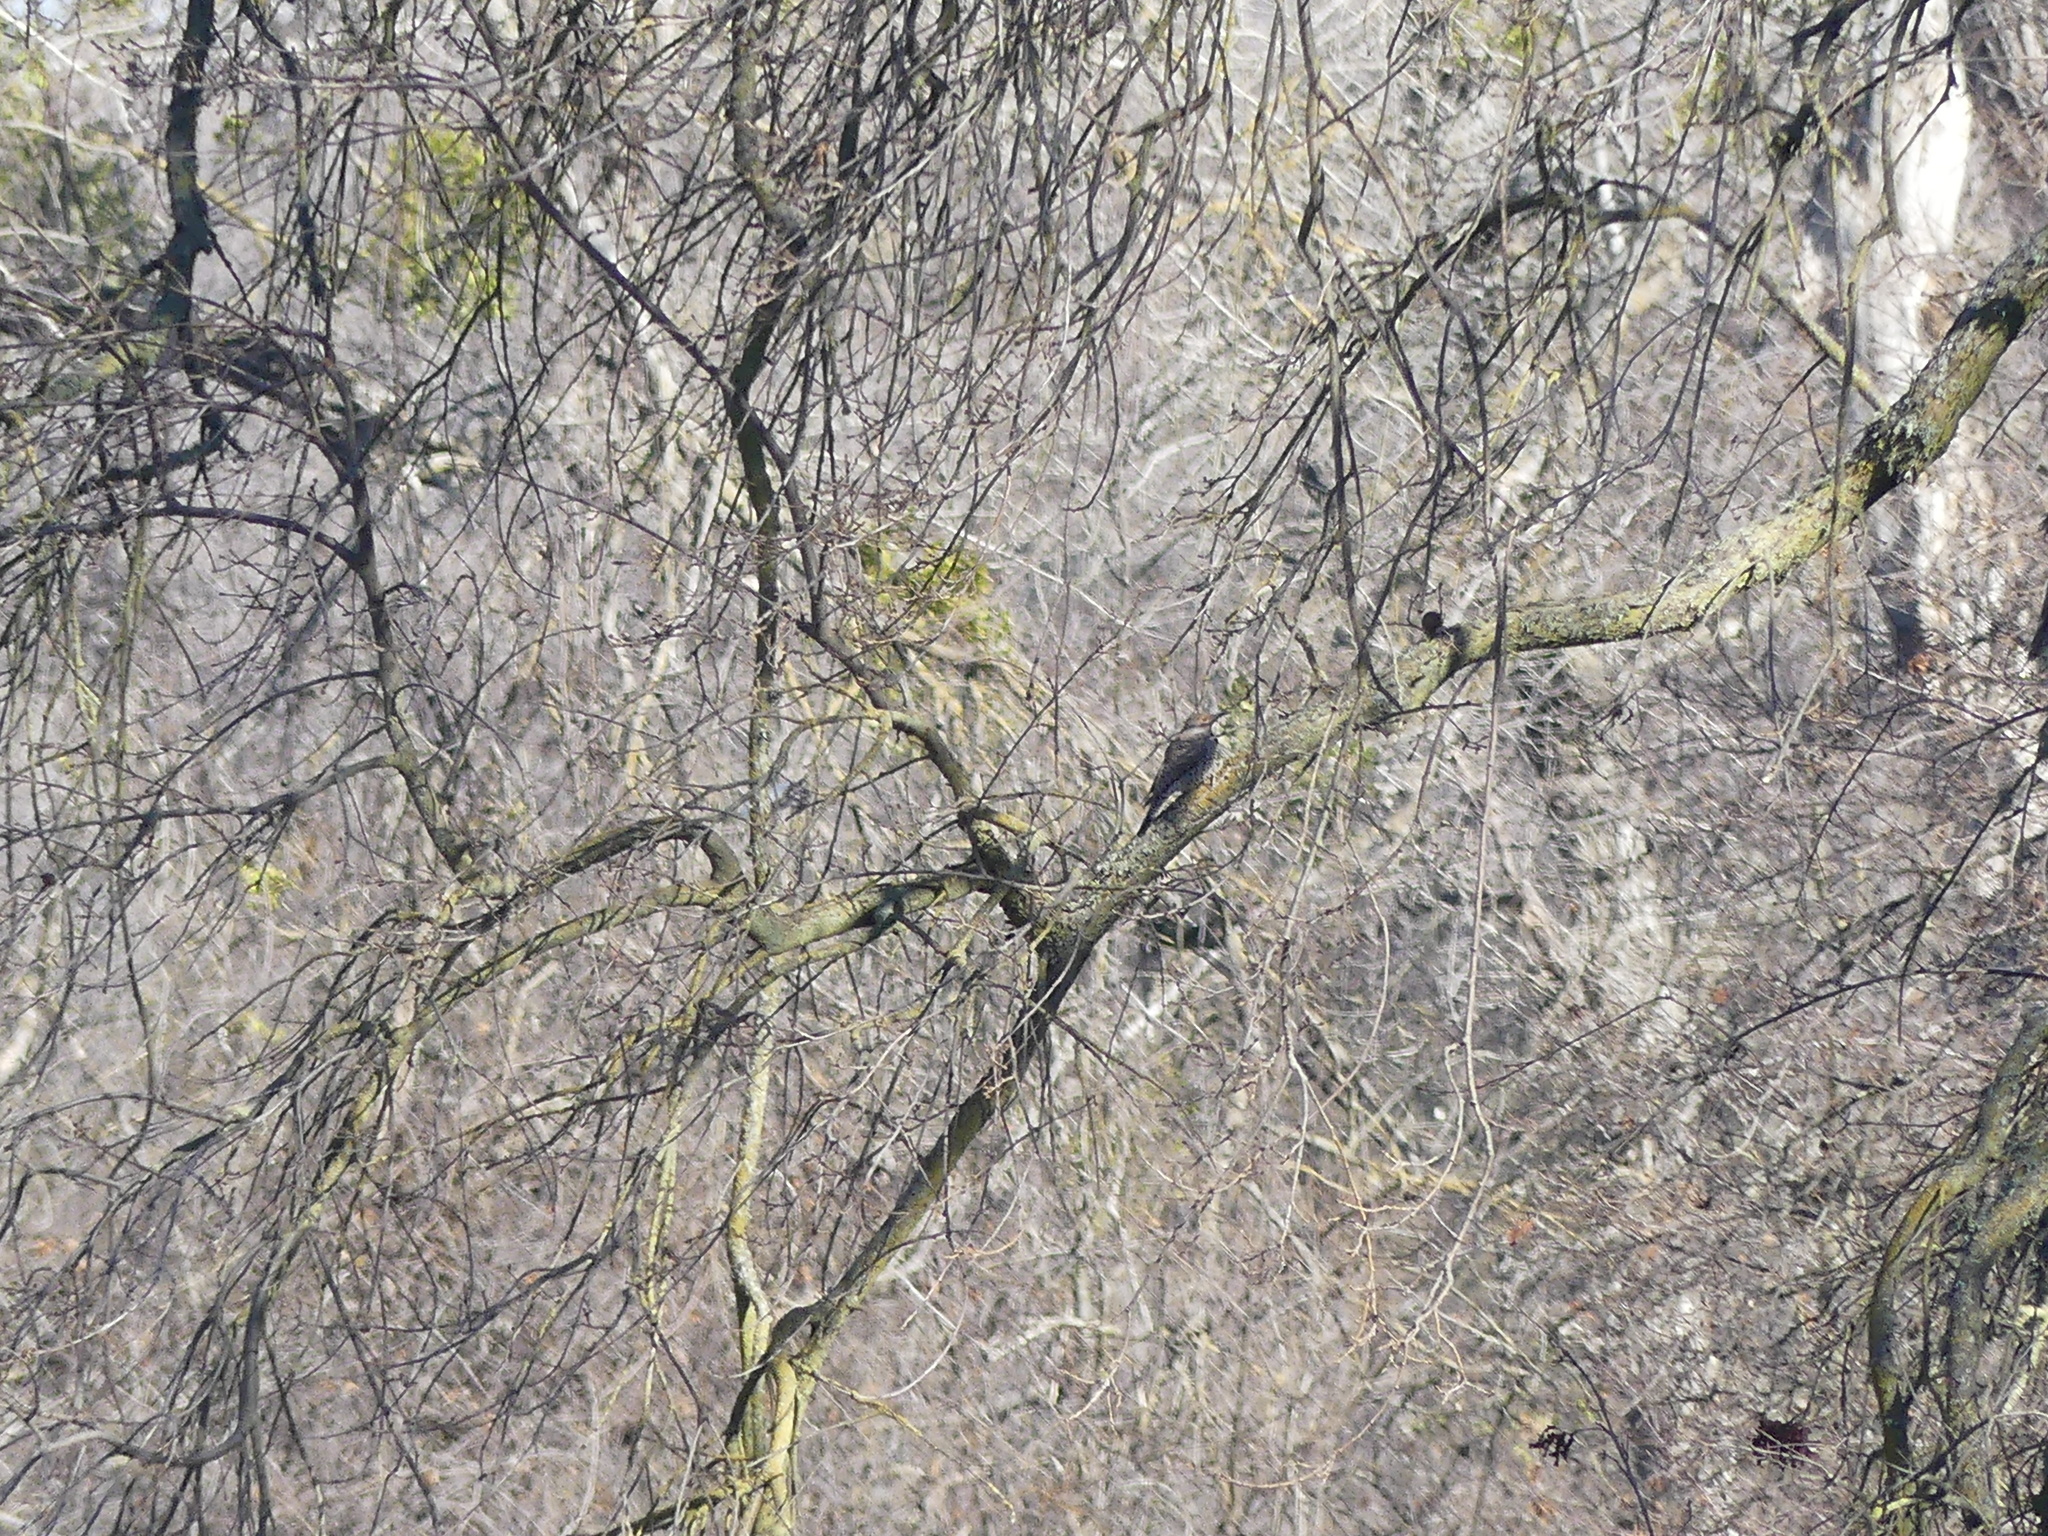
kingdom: Animalia
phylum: Chordata
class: Aves
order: Piciformes
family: Picidae
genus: Colaptes
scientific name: Colaptes auratus
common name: Northern flicker
